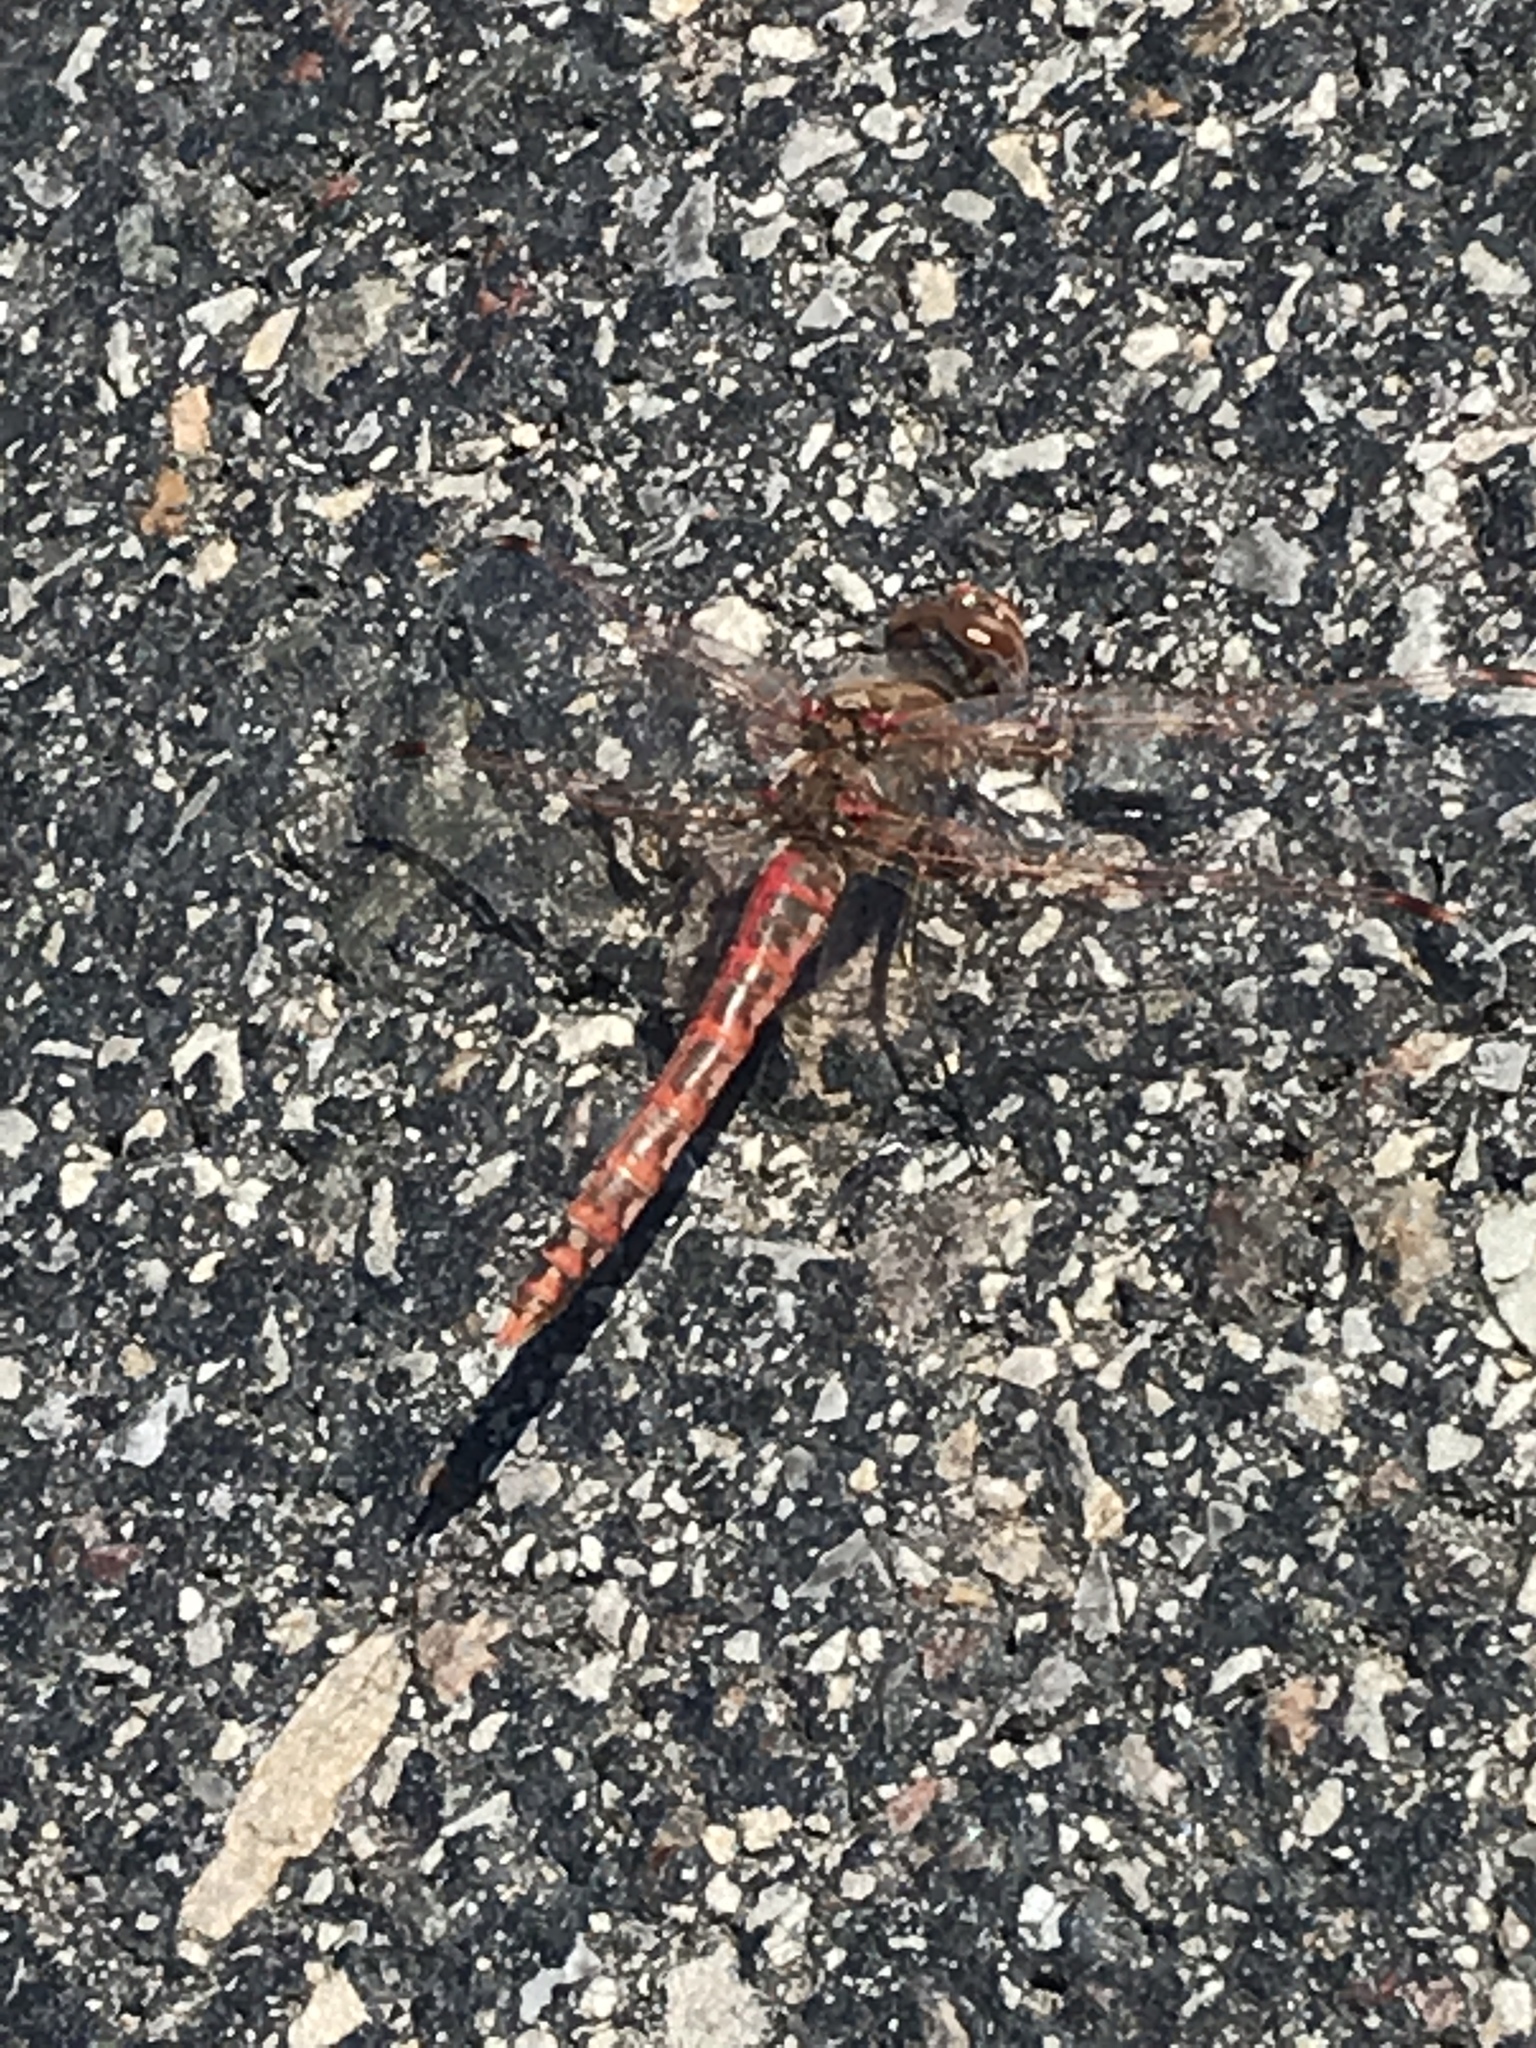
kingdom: Animalia
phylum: Arthropoda
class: Insecta
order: Odonata
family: Libellulidae
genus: Sympetrum
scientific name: Sympetrum corruptum
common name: Variegated meadowhawk
